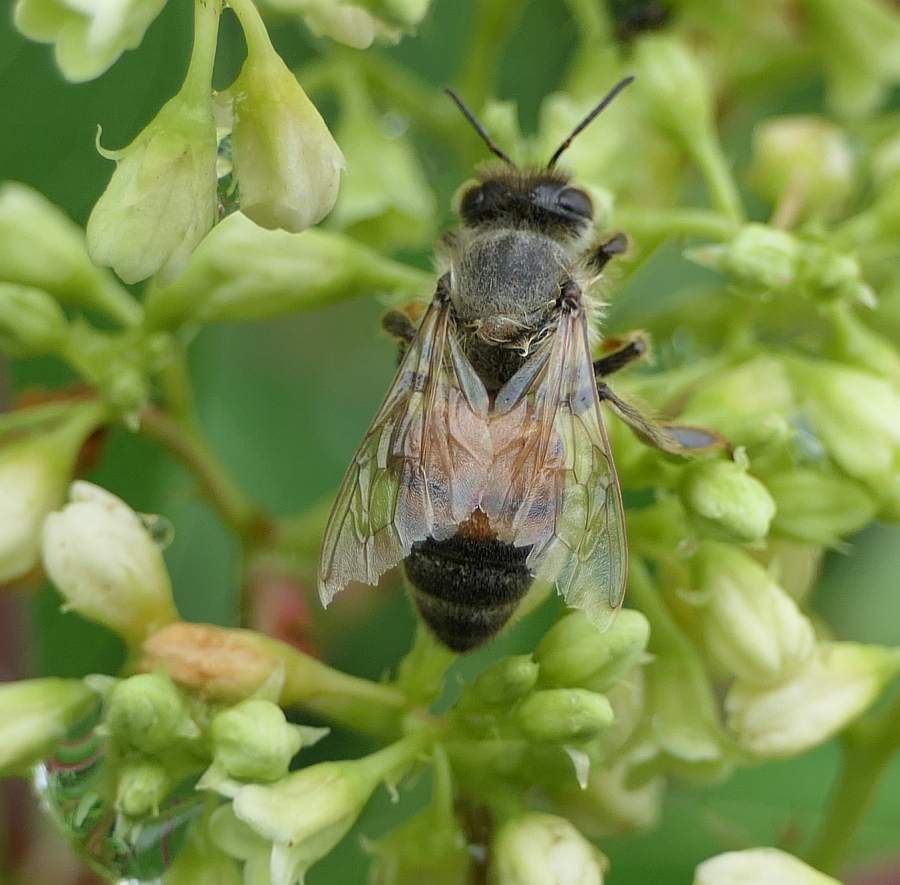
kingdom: Animalia
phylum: Arthropoda
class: Insecta
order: Hymenoptera
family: Apidae
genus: Apis
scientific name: Apis mellifera
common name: Honey bee
